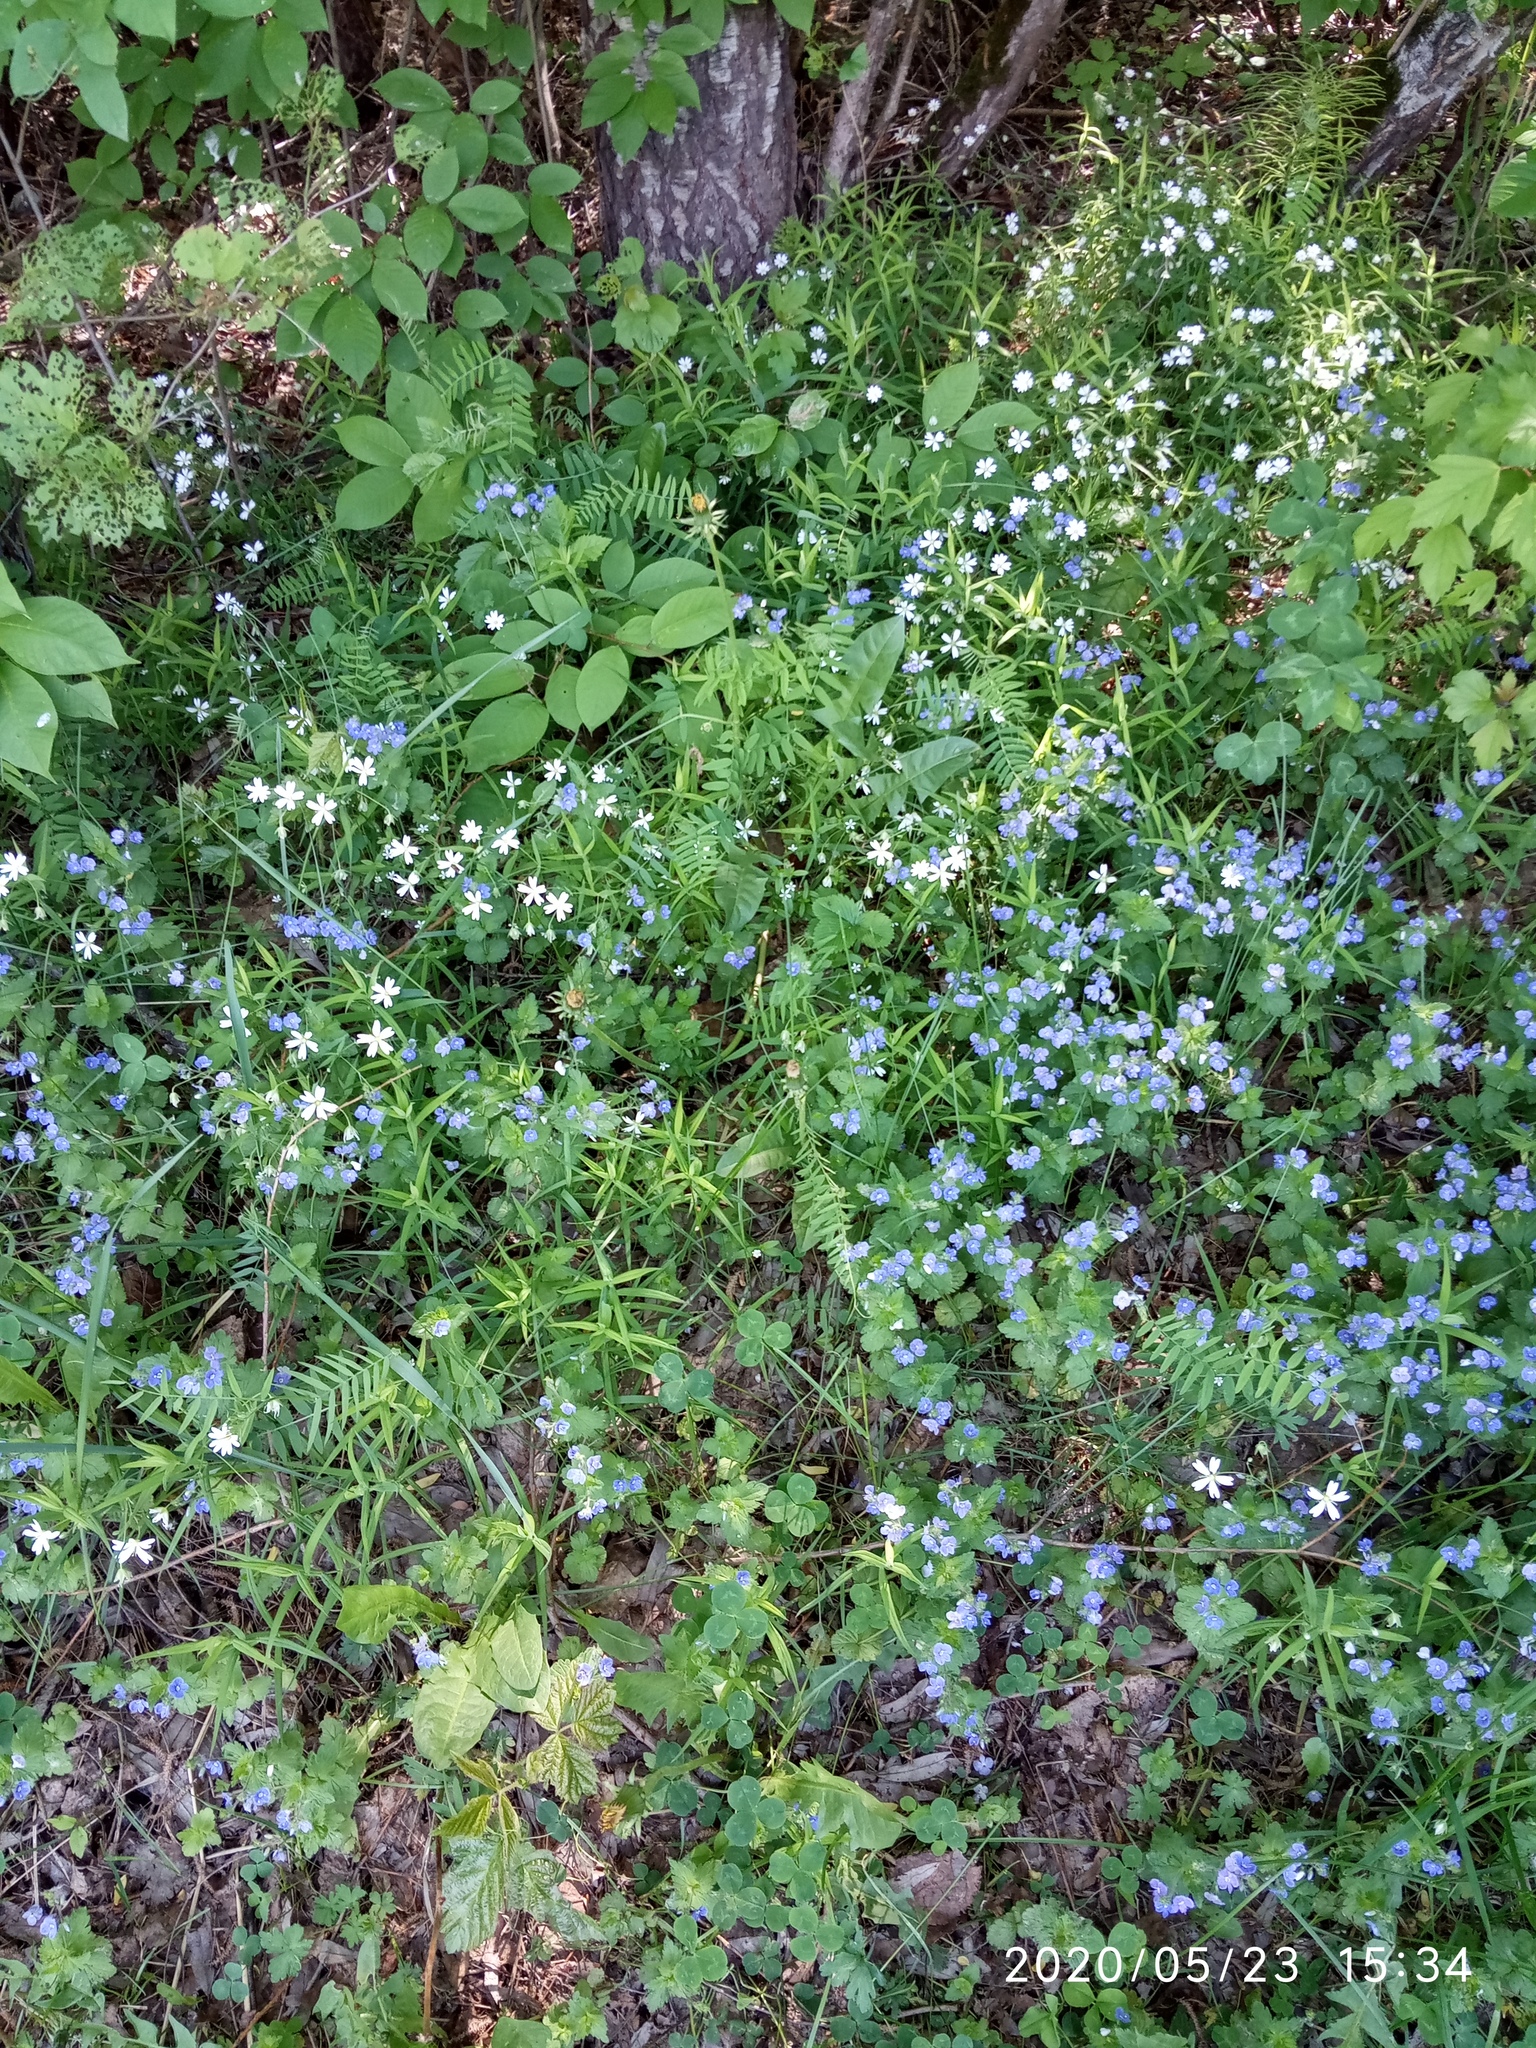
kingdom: Plantae
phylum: Tracheophyta
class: Magnoliopsida
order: Lamiales
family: Plantaginaceae
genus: Veronica
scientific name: Veronica chamaedrys
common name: Germander speedwell
